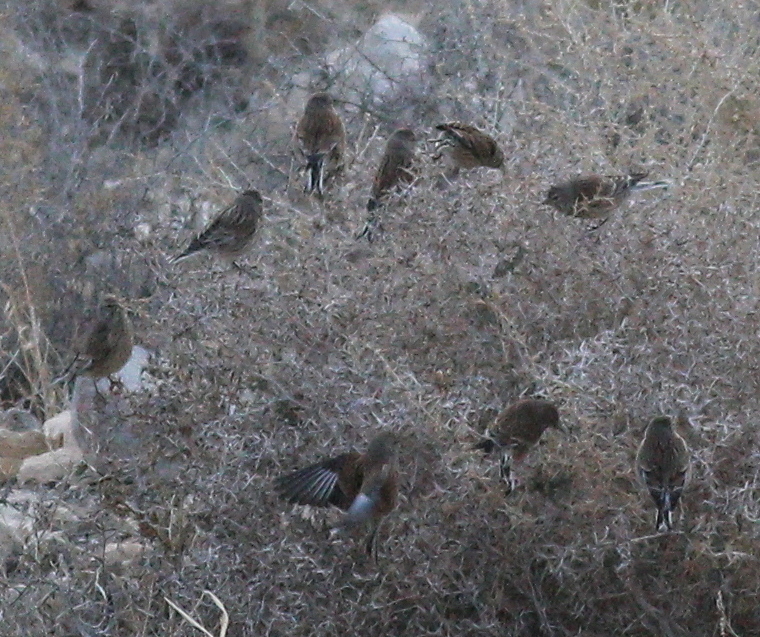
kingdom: Animalia
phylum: Chordata
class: Aves
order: Passeriformes
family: Fringillidae
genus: Linaria
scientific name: Linaria cannabina
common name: Common linnet
